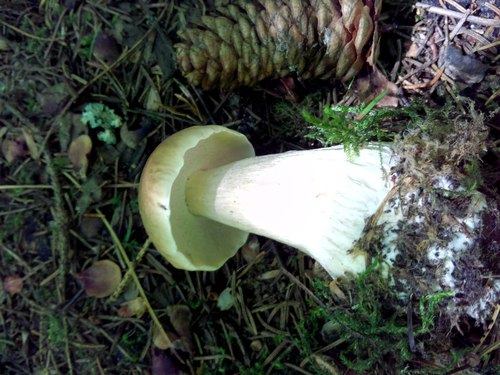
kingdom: Fungi
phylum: Basidiomycota
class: Agaricomycetes
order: Boletales
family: Boletaceae
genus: Boletus
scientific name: Boletus edulis
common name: Cep
